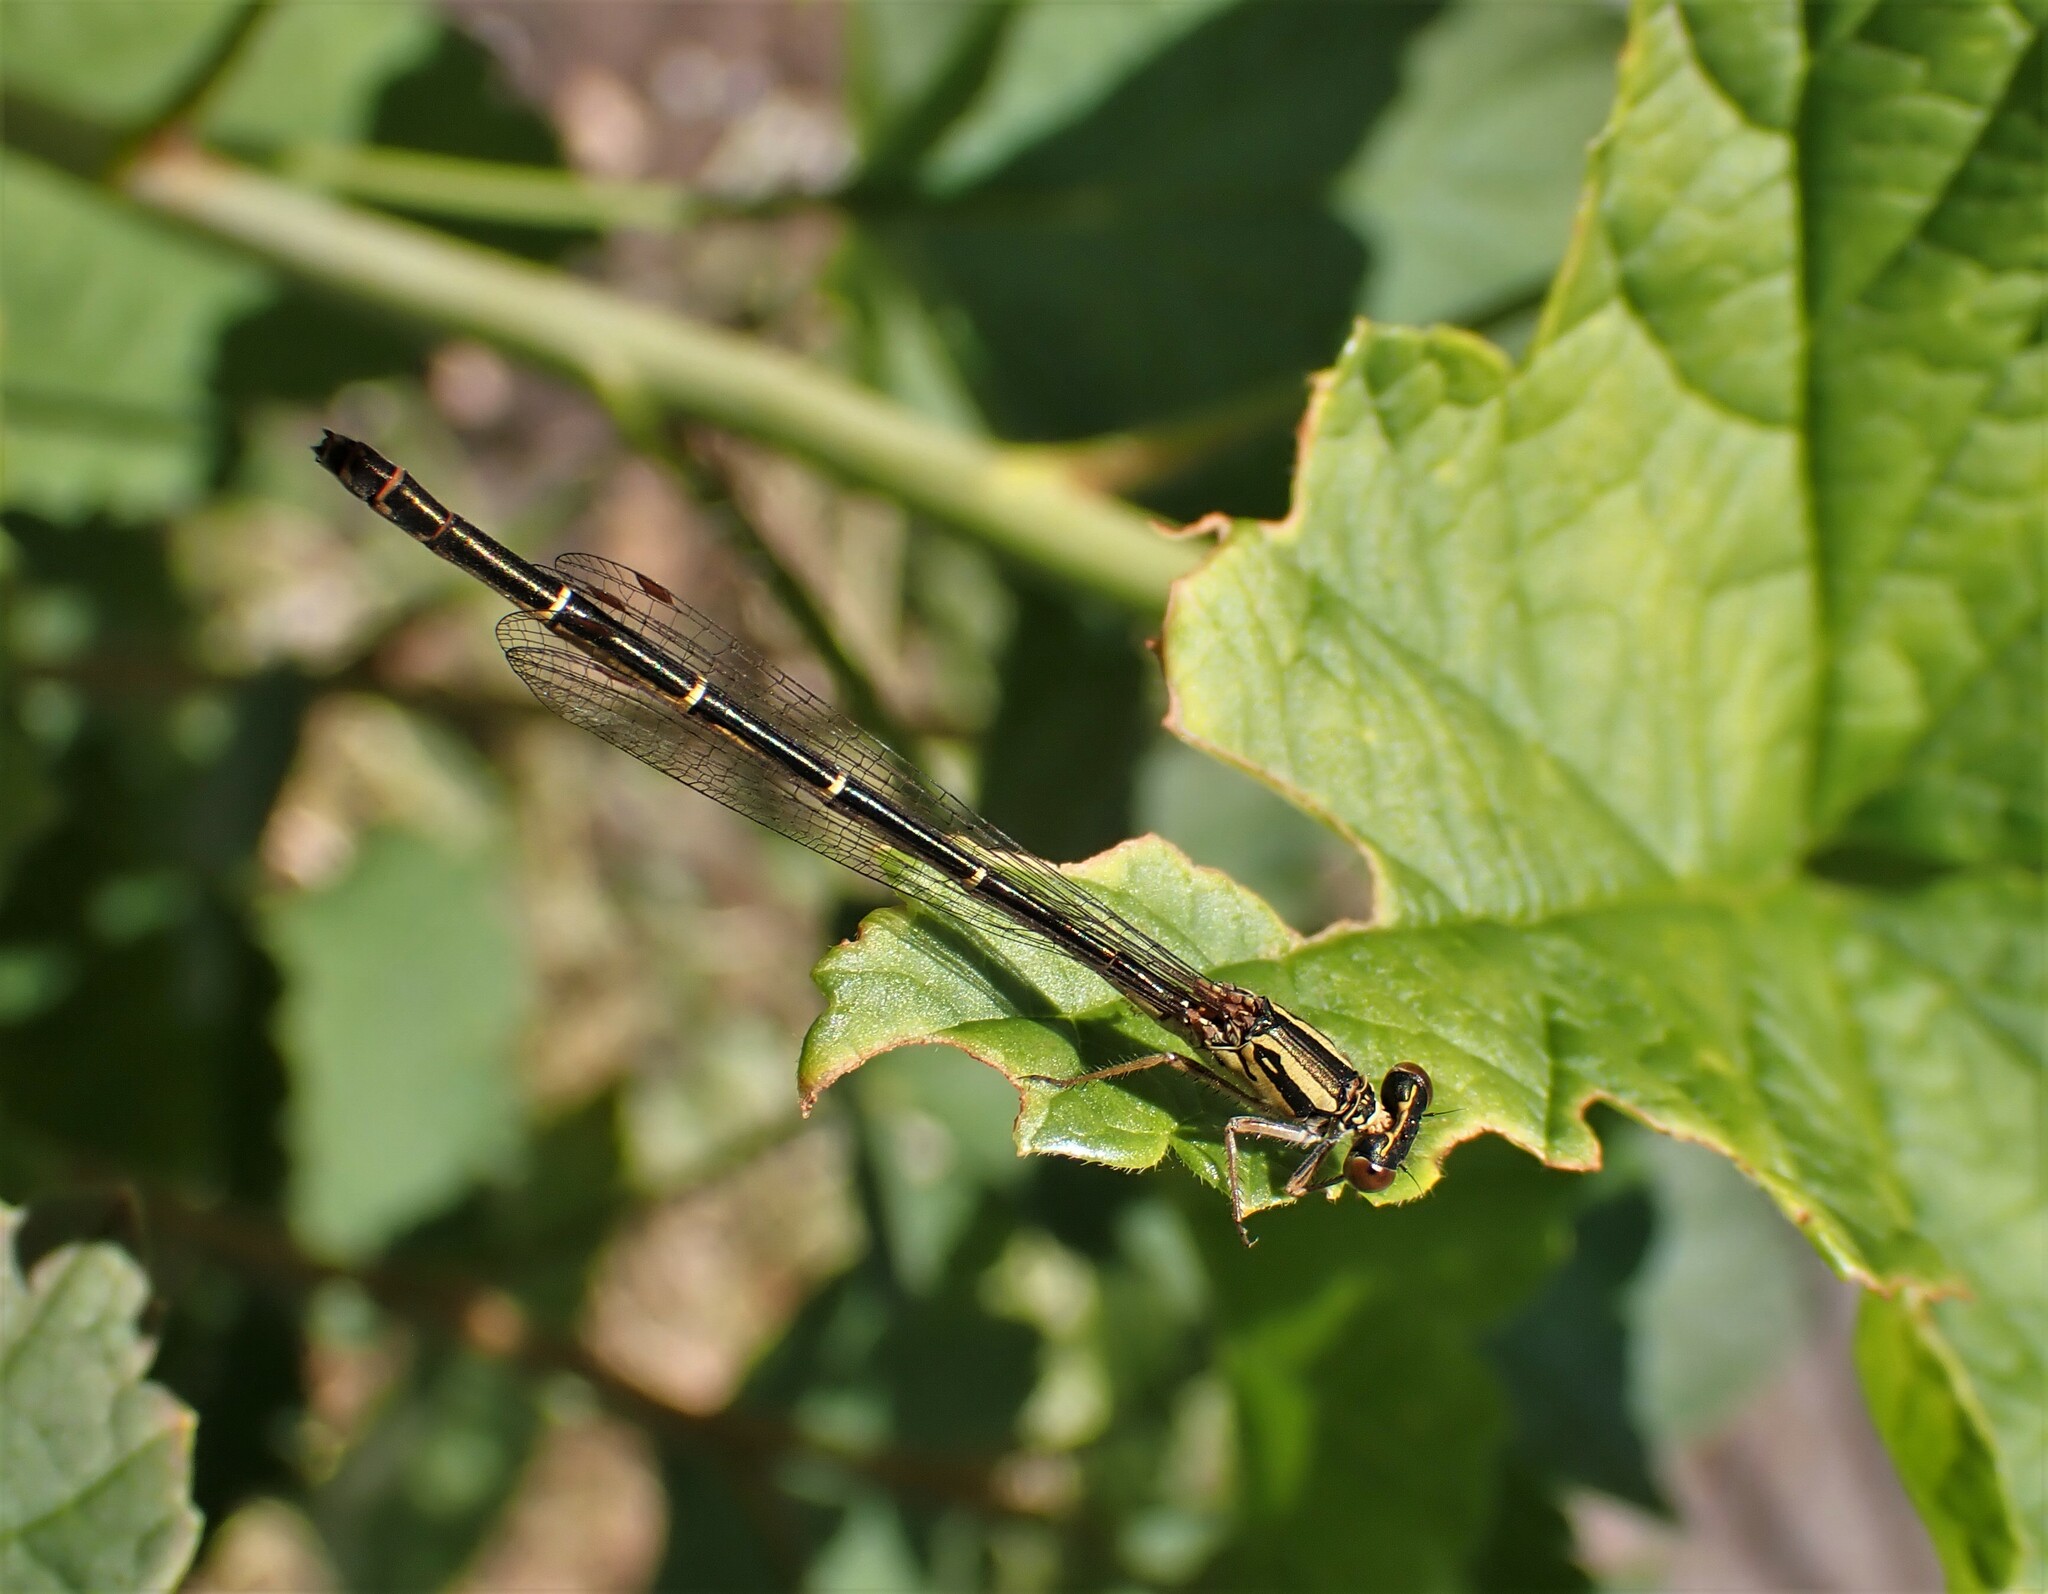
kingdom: Animalia
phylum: Arthropoda
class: Insecta
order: Odonata
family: Coenagrionidae
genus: Xanthocnemis
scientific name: Xanthocnemis zealandica
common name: Common redcoat damselfly
